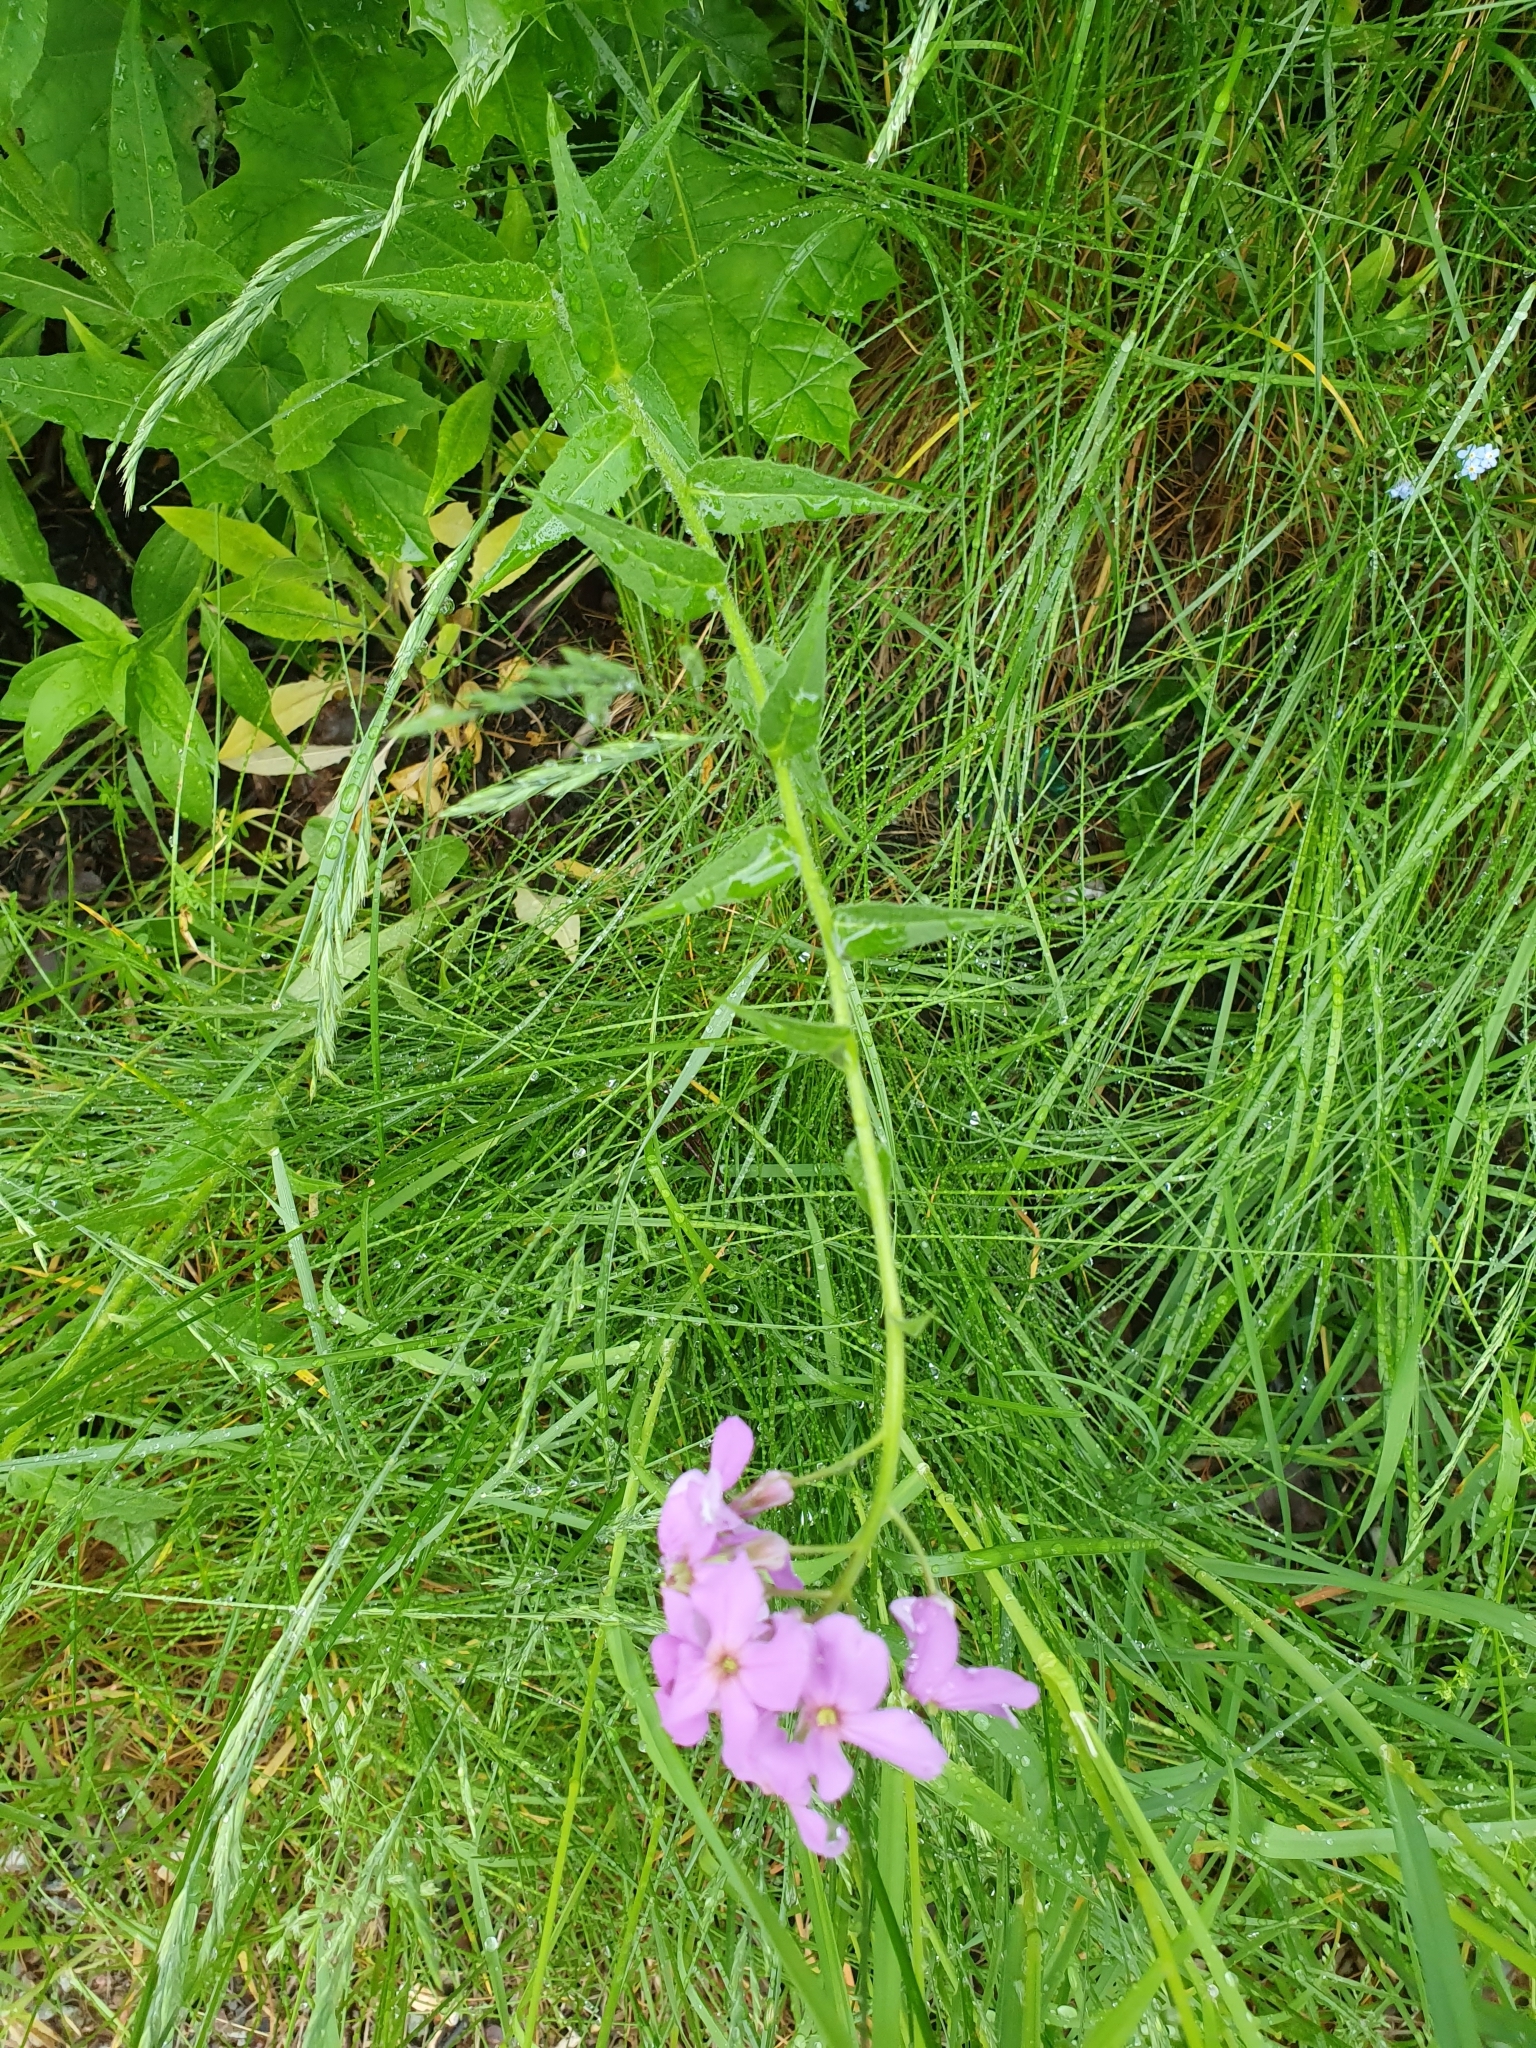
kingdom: Plantae
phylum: Tracheophyta
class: Magnoliopsida
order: Brassicales
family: Brassicaceae
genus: Hesperis
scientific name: Hesperis matronalis
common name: Dame's-violet
